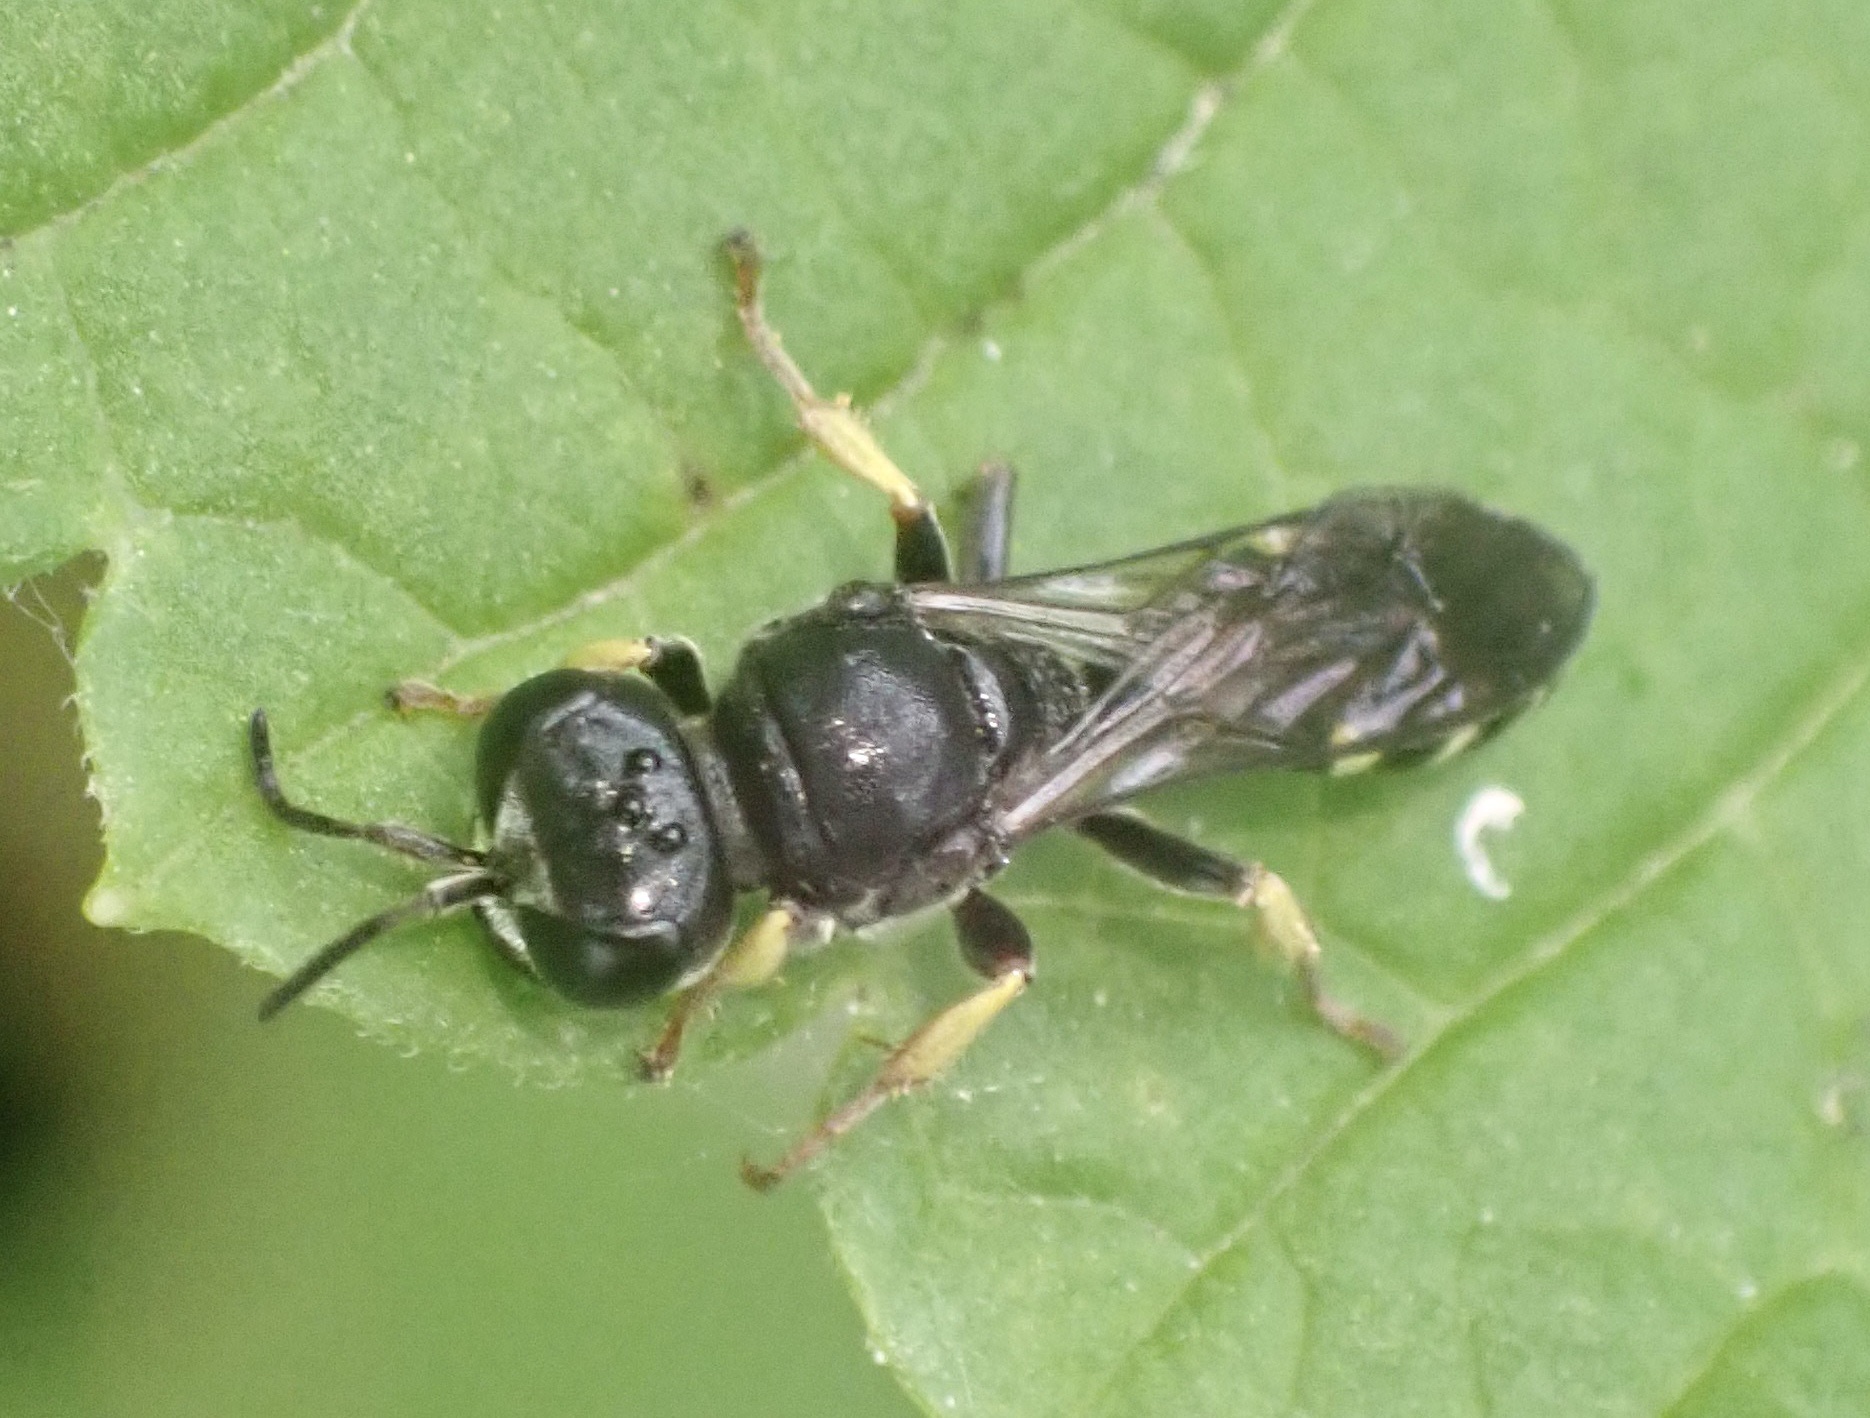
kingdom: Animalia
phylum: Arthropoda
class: Insecta
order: Hymenoptera
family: Crabronidae
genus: Crabro
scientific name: Crabro scutellatus
